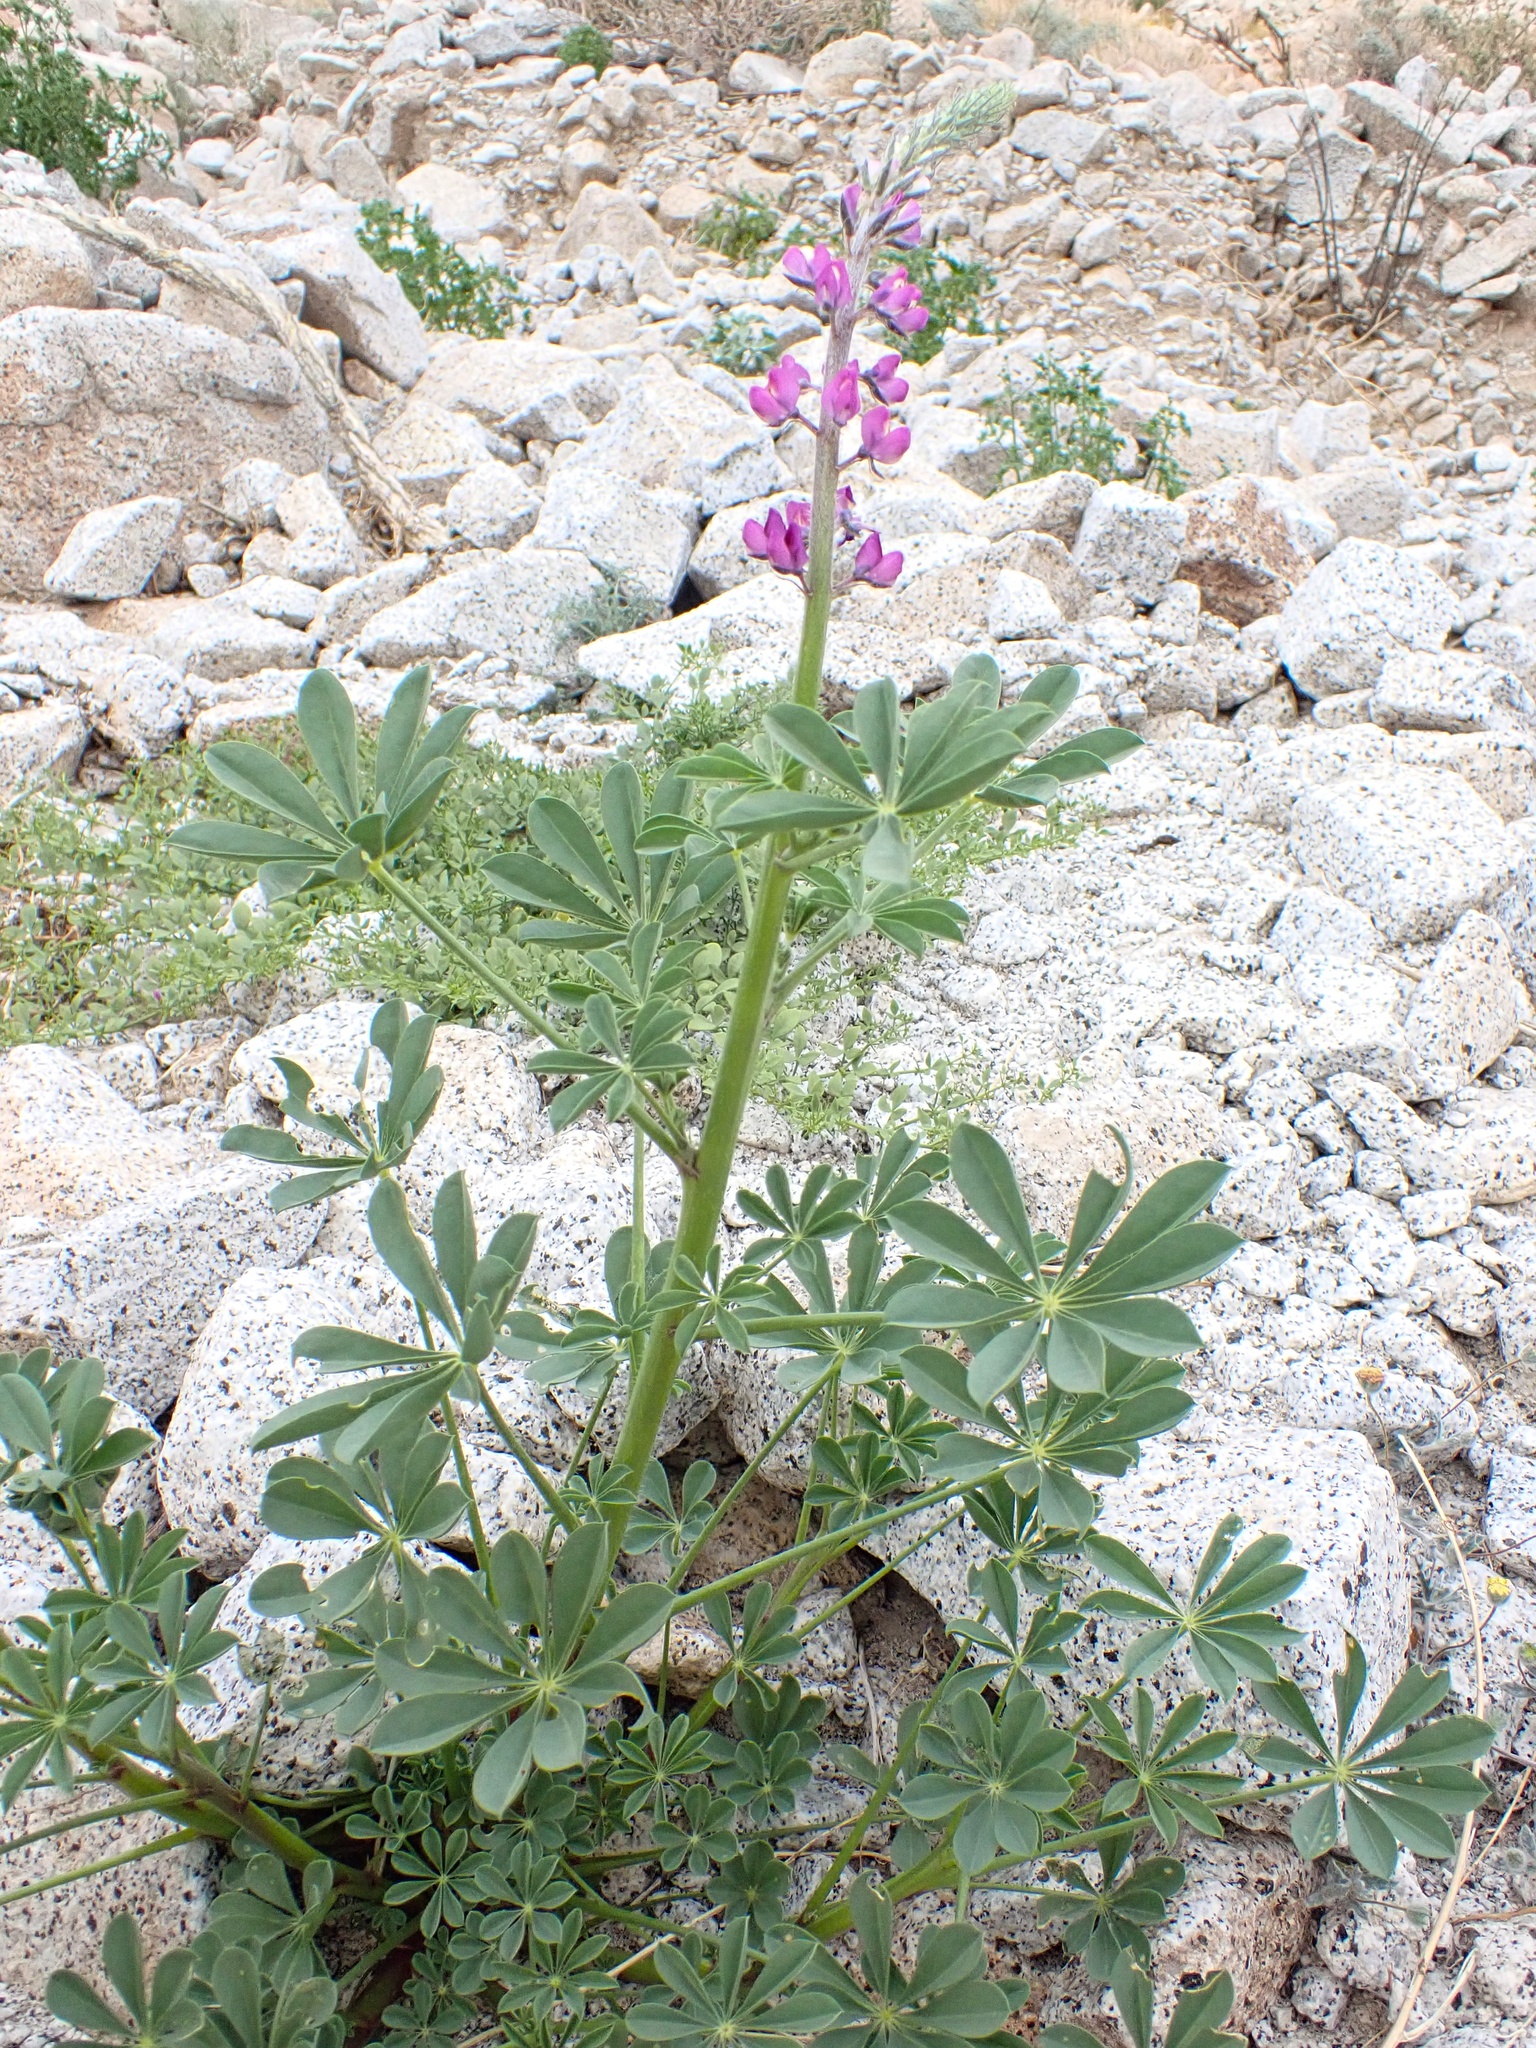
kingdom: Plantae
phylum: Tracheophyta
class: Magnoliopsida
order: Fabales
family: Fabaceae
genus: Lupinus
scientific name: Lupinus arizonicus
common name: Arizona lupine
